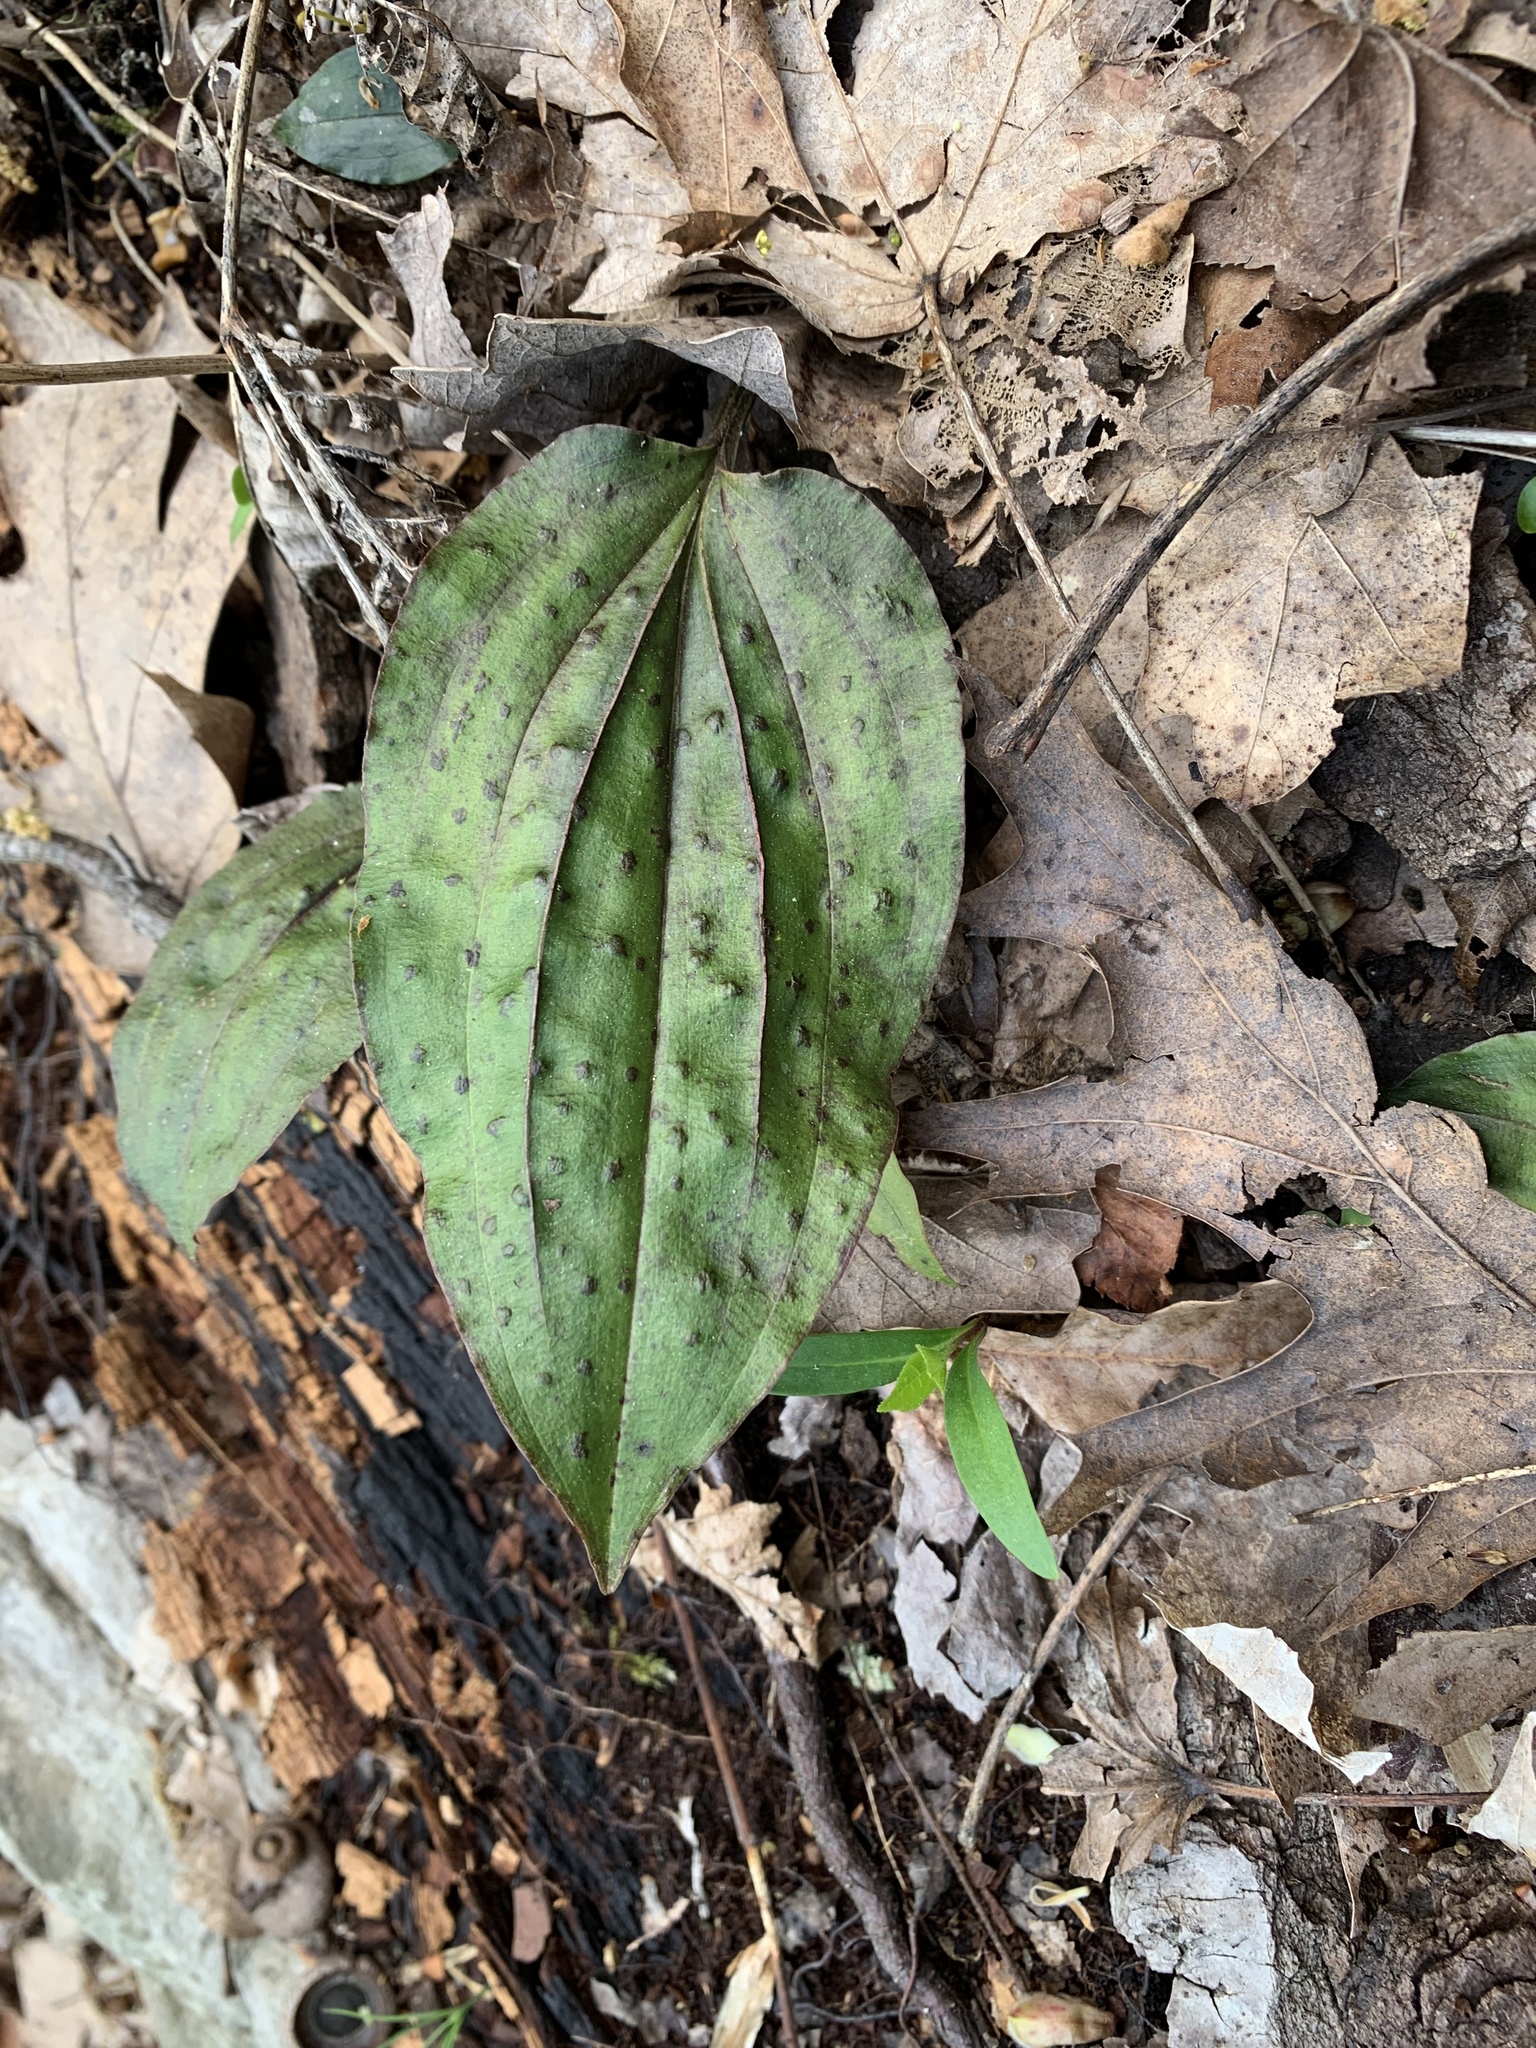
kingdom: Plantae
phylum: Tracheophyta
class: Liliopsida
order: Asparagales
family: Orchidaceae
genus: Tipularia
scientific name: Tipularia discolor
